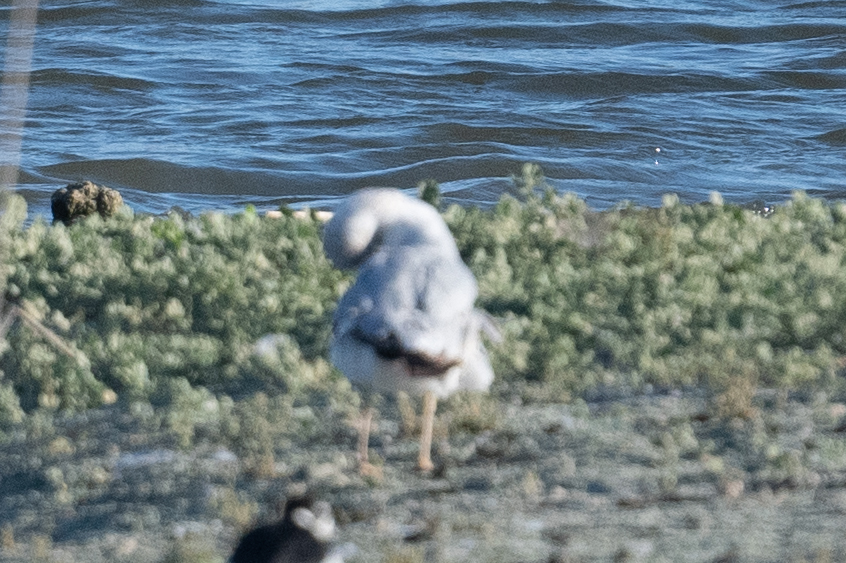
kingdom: Animalia
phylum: Chordata
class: Aves
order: Charadriiformes
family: Laridae
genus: Larus
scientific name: Larus delawarensis
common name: Ring-billed gull
